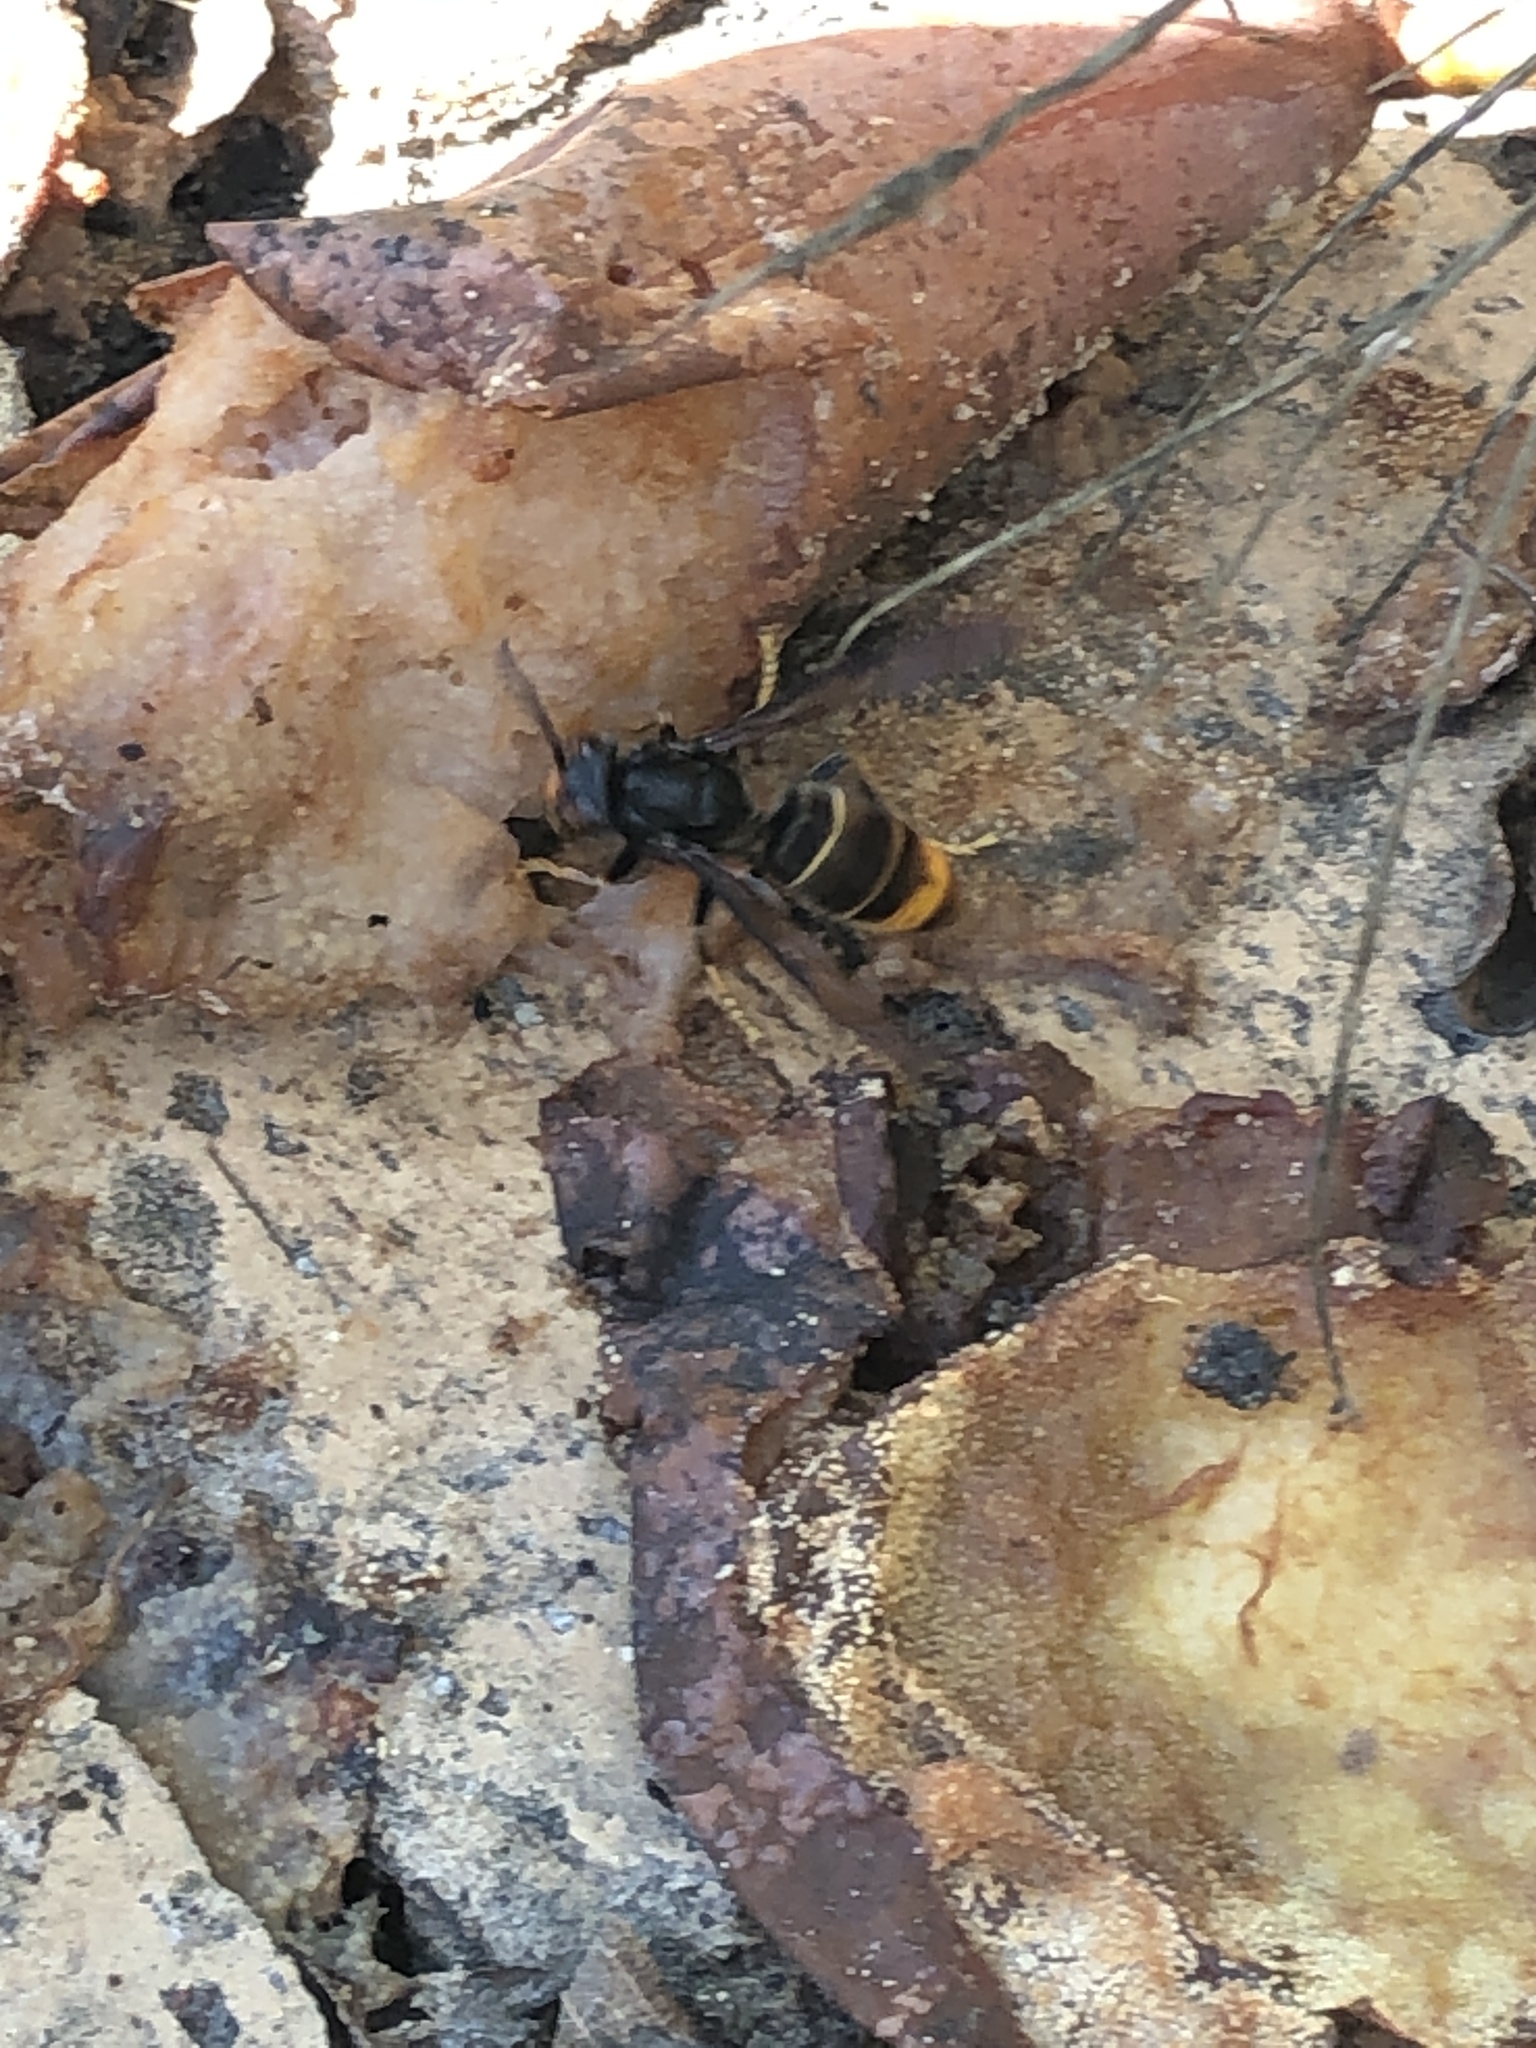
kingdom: Animalia
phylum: Arthropoda
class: Insecta
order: Hymenoptera
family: Vespidae
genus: Vespa
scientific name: Vespa velutina
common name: Asian hornet
